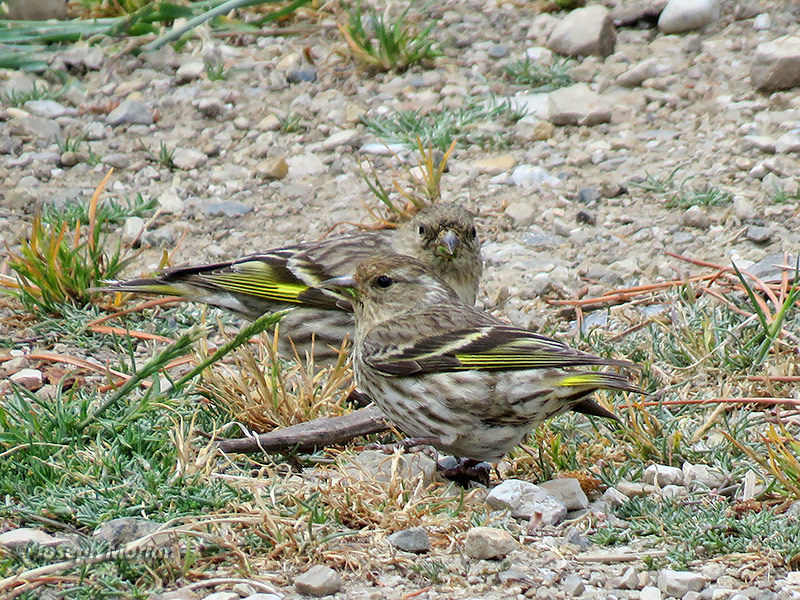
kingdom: Animalia
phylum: Chordata
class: Aves
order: Passeriformes
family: Fringillidae
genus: Spinus
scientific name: Spinus pinus
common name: Pine siskin
